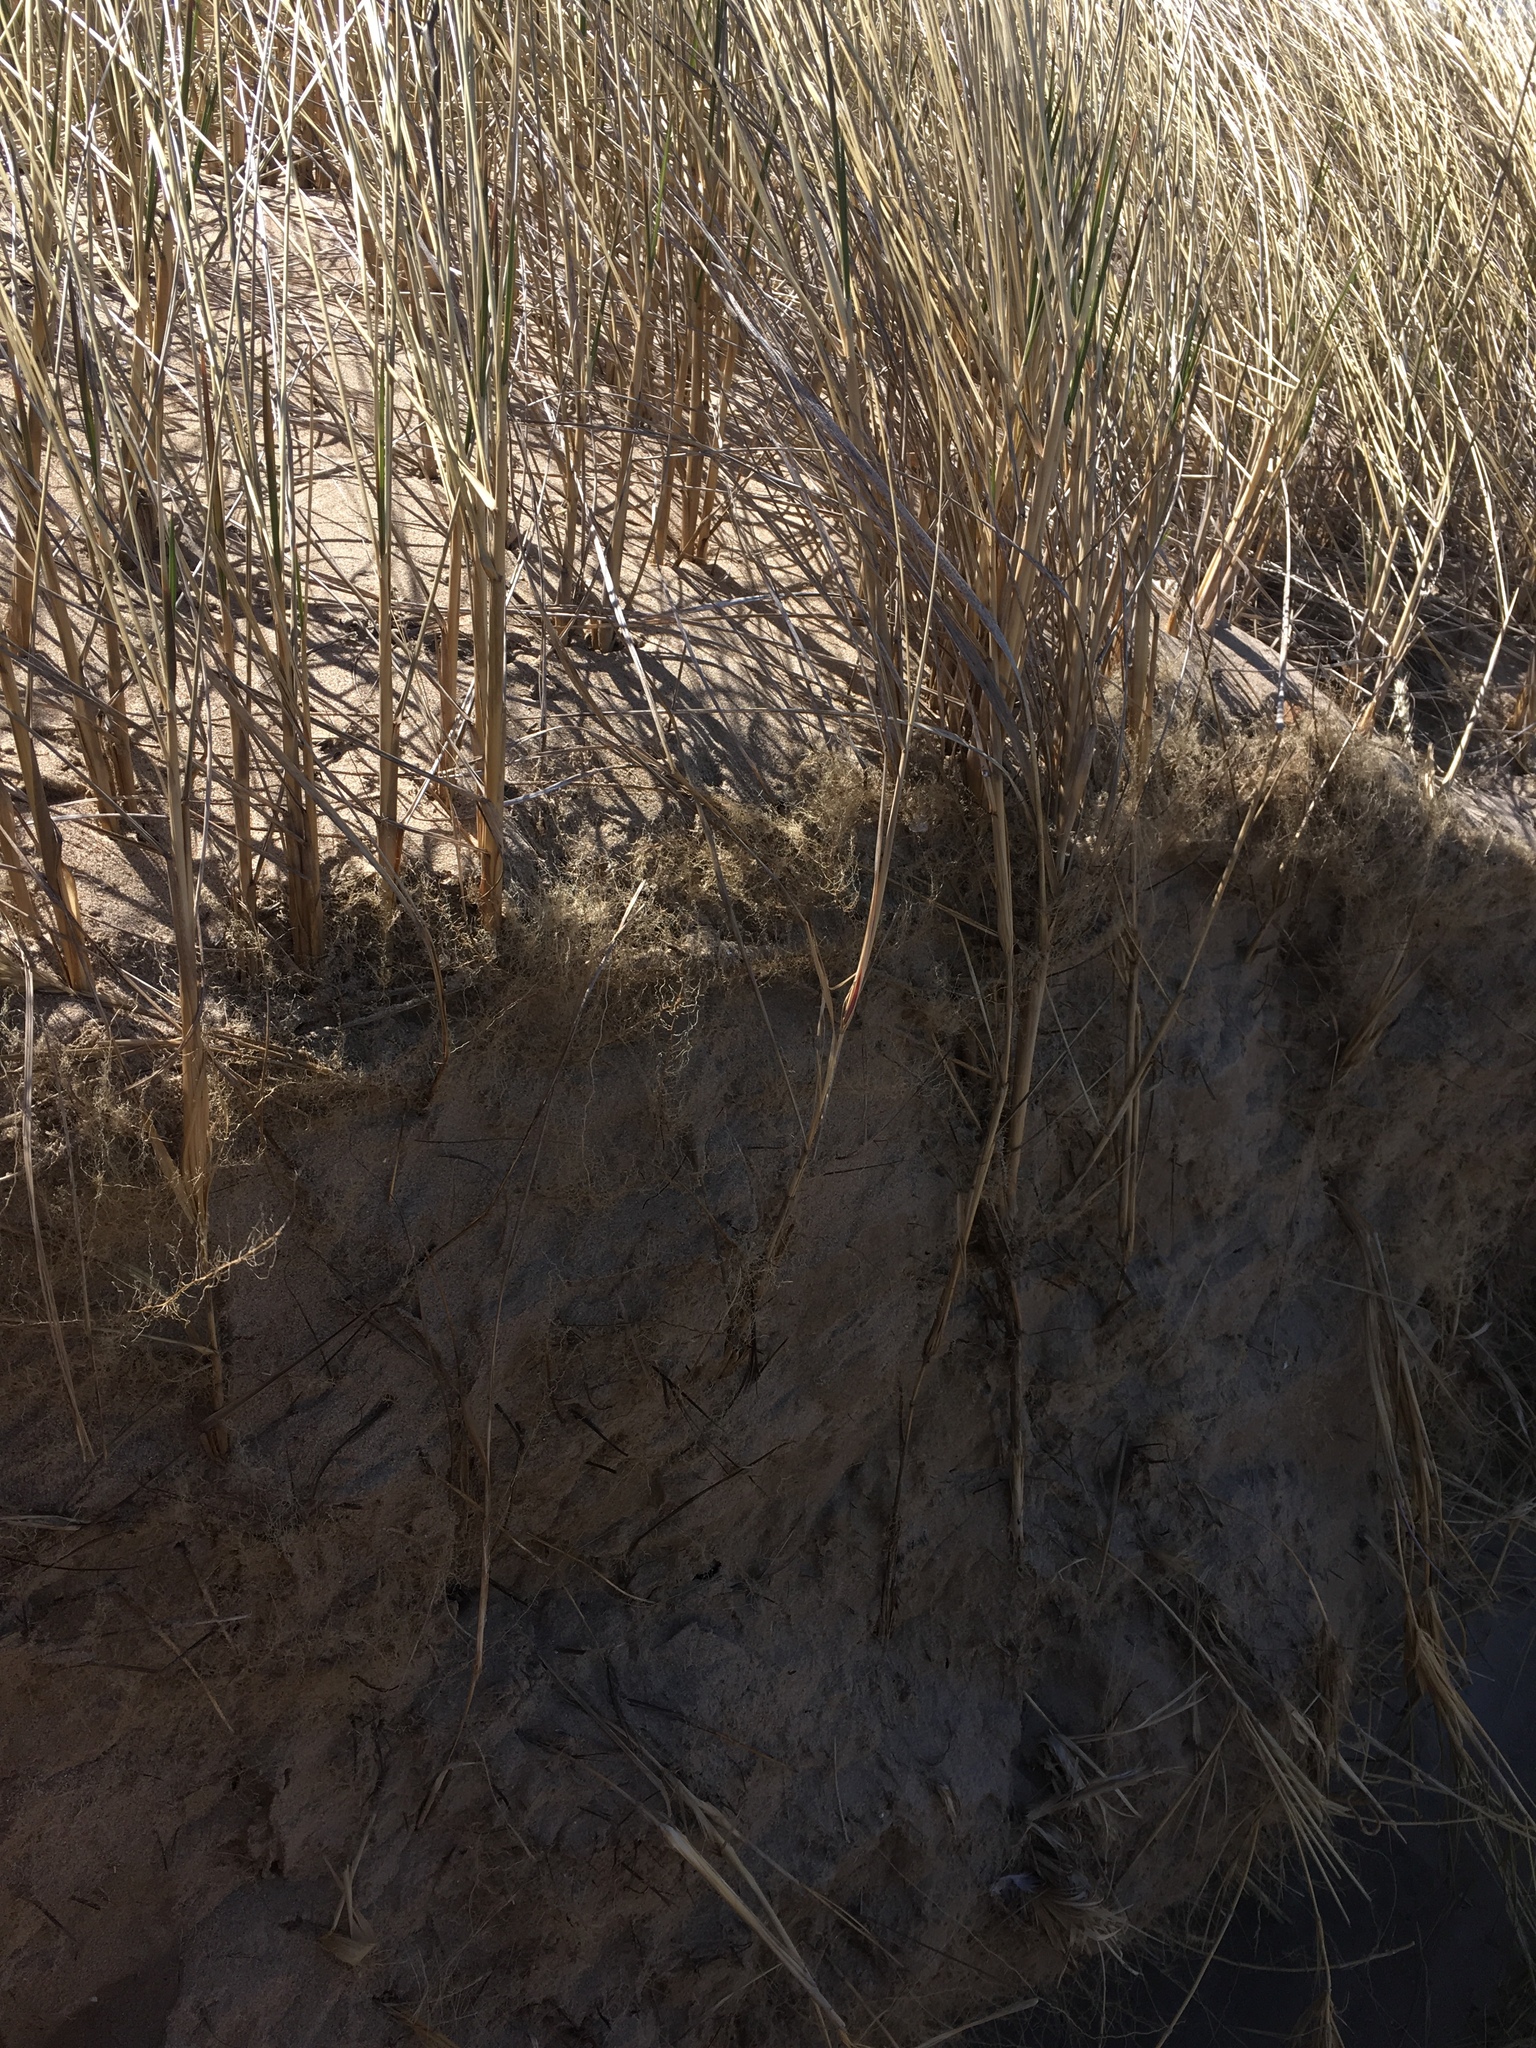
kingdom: Plantae
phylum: Tracheophyta
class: Liliopsida
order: Poales
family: Poaceae
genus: Calamagrostis
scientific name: Calamagrostis breviligulata
